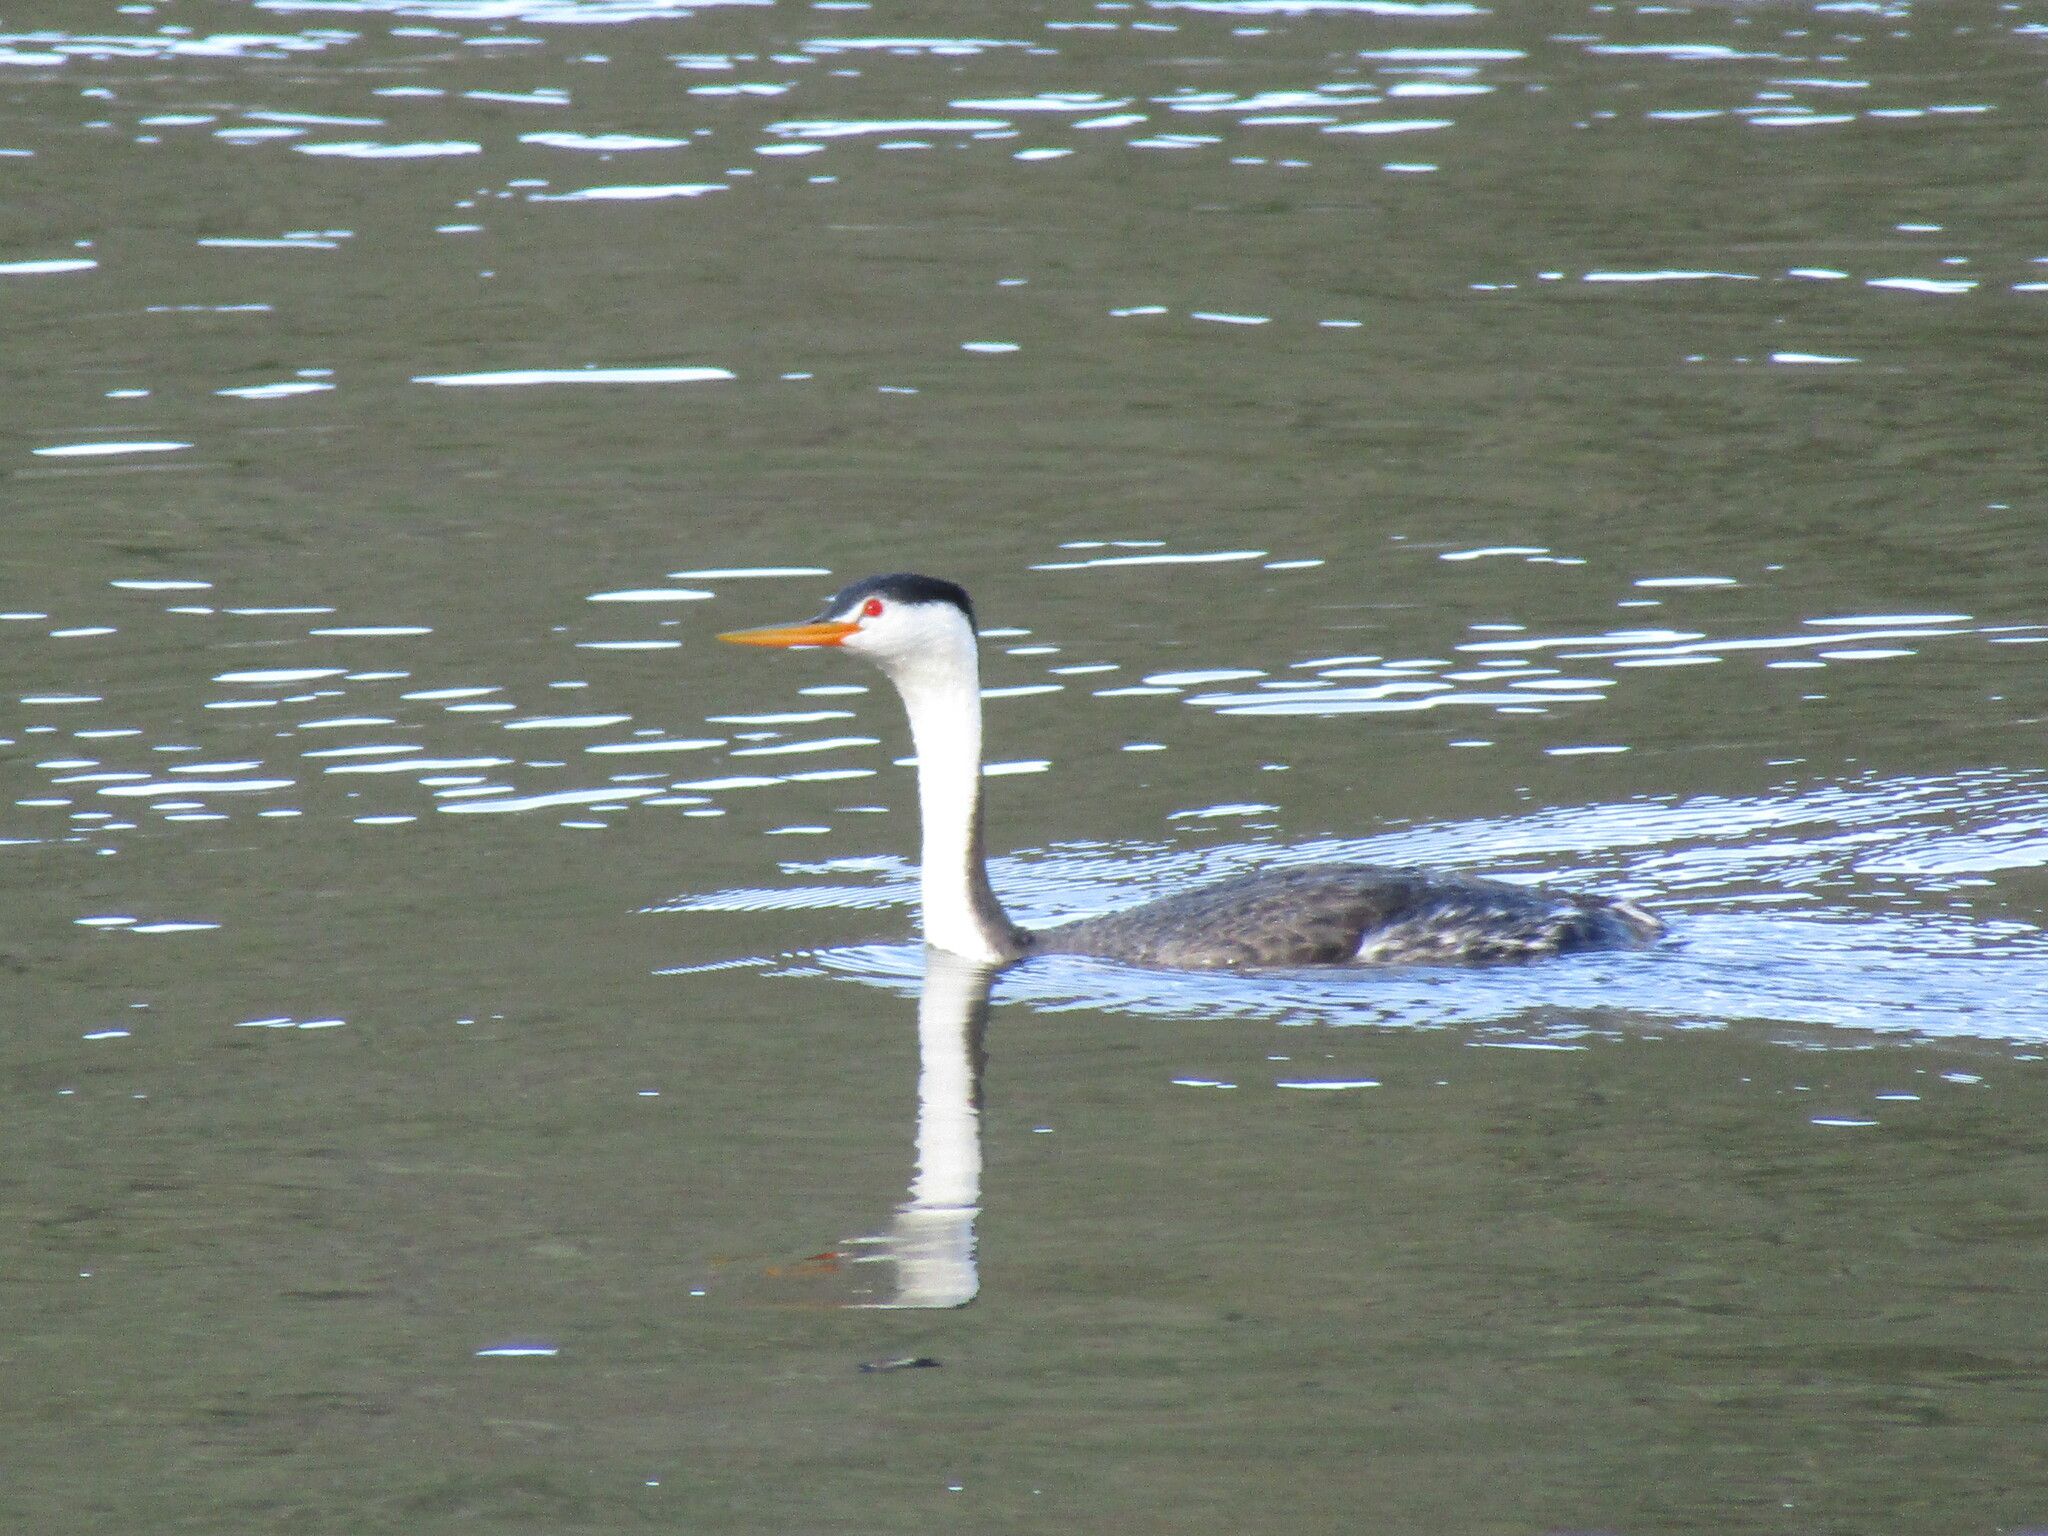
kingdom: Animalia
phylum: Chordata
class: Aves
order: Podicipediformes
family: Podicipedidae
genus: Aechmophorus
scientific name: Aechmophorus clarkii
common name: Clark's grebe
